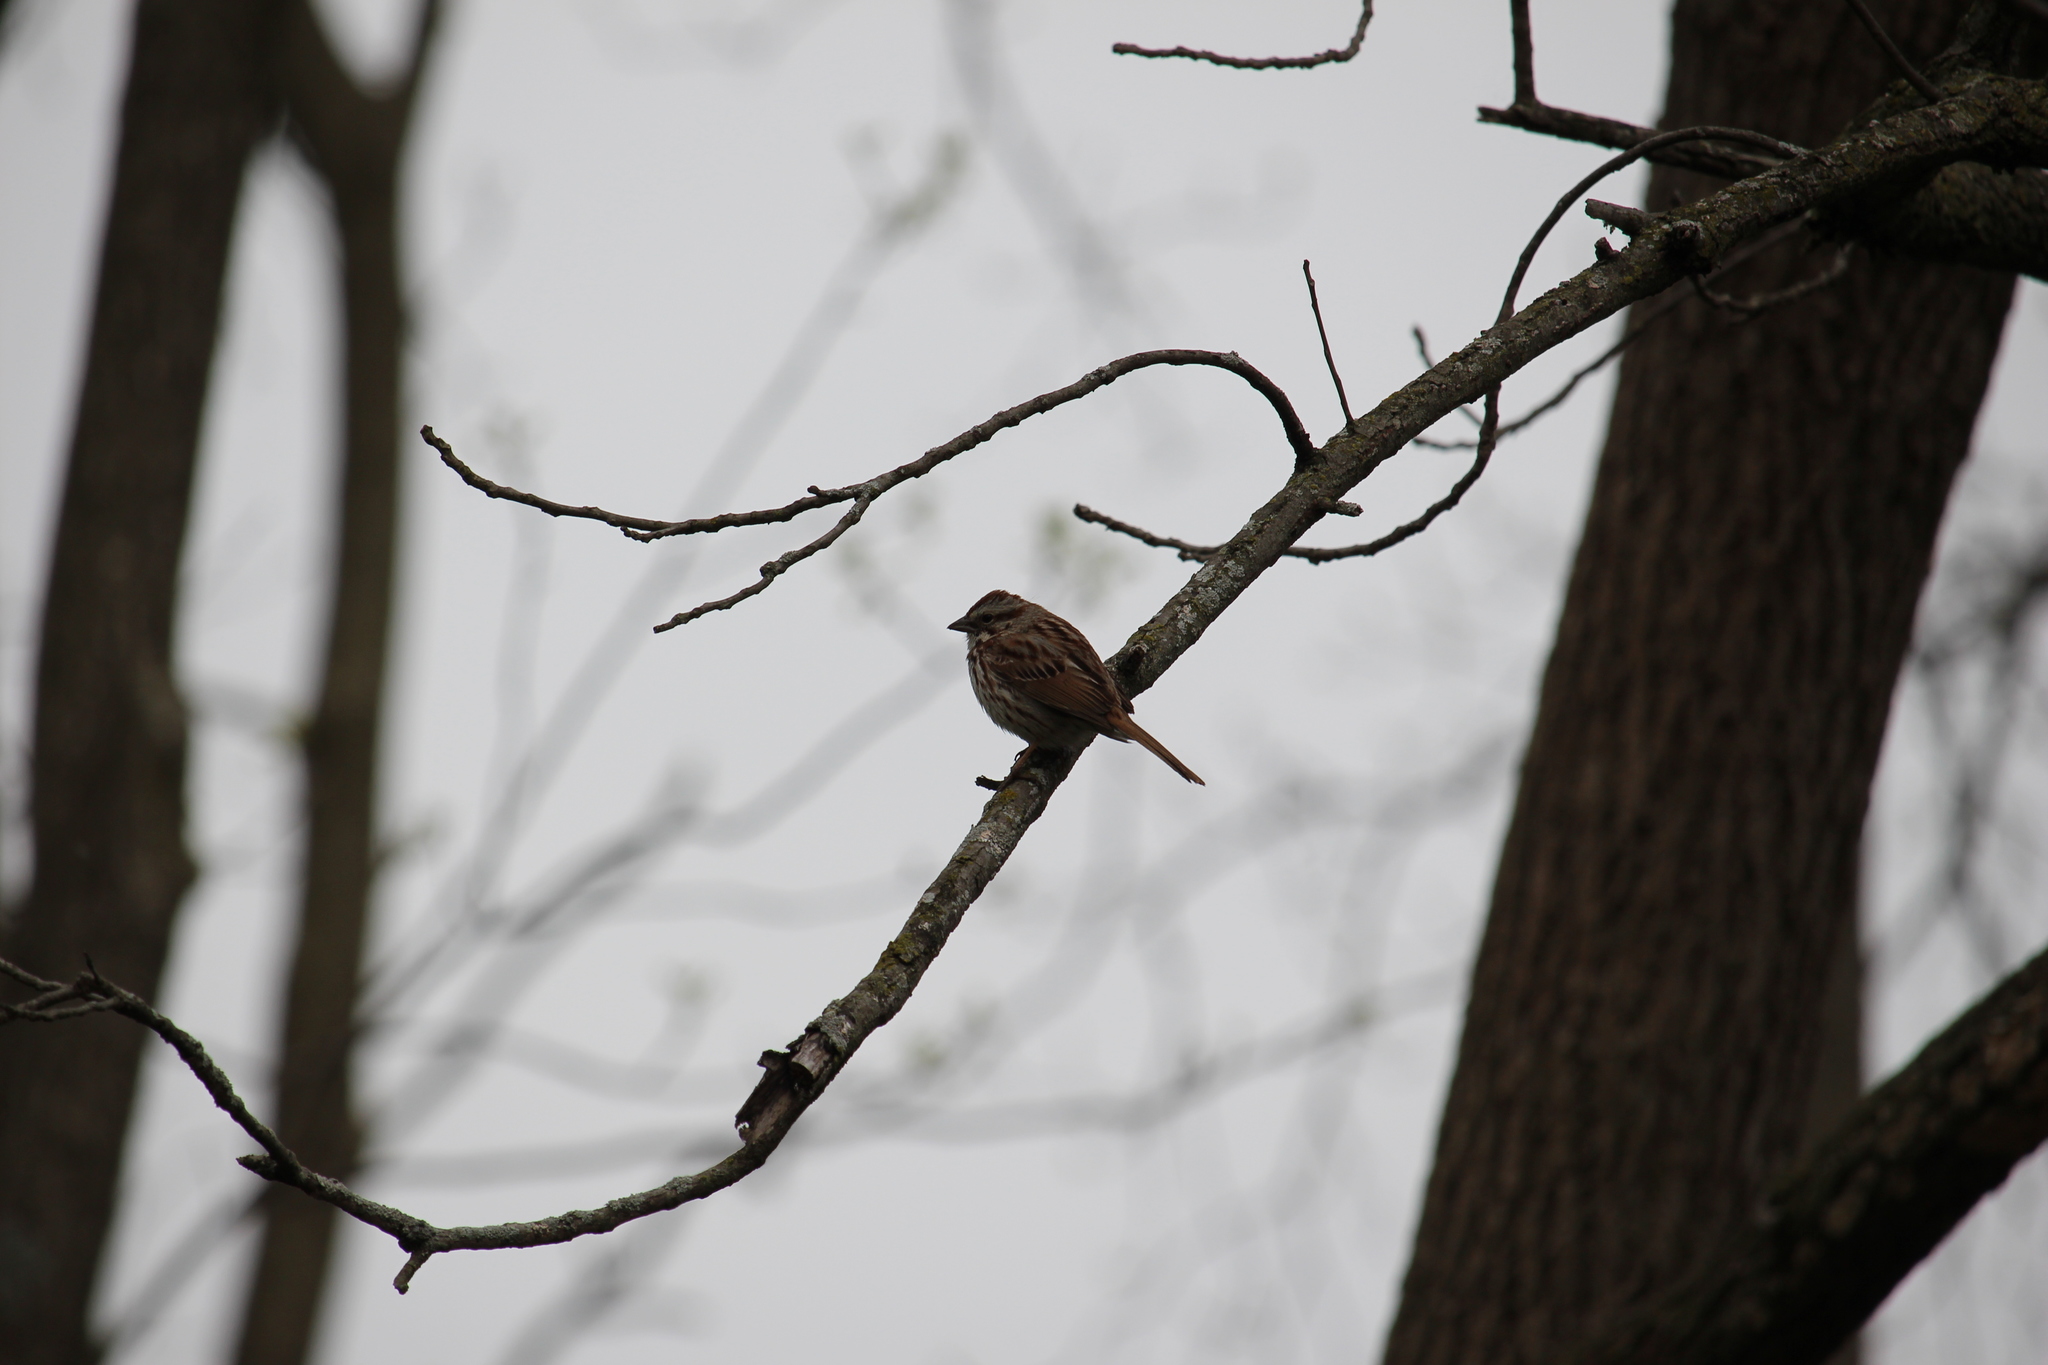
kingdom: Animalia
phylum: Chordata
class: Aves
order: Passeriformes
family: Passerellidae
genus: Melospiza
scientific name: Melospiza melodia
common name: Song sparrow
